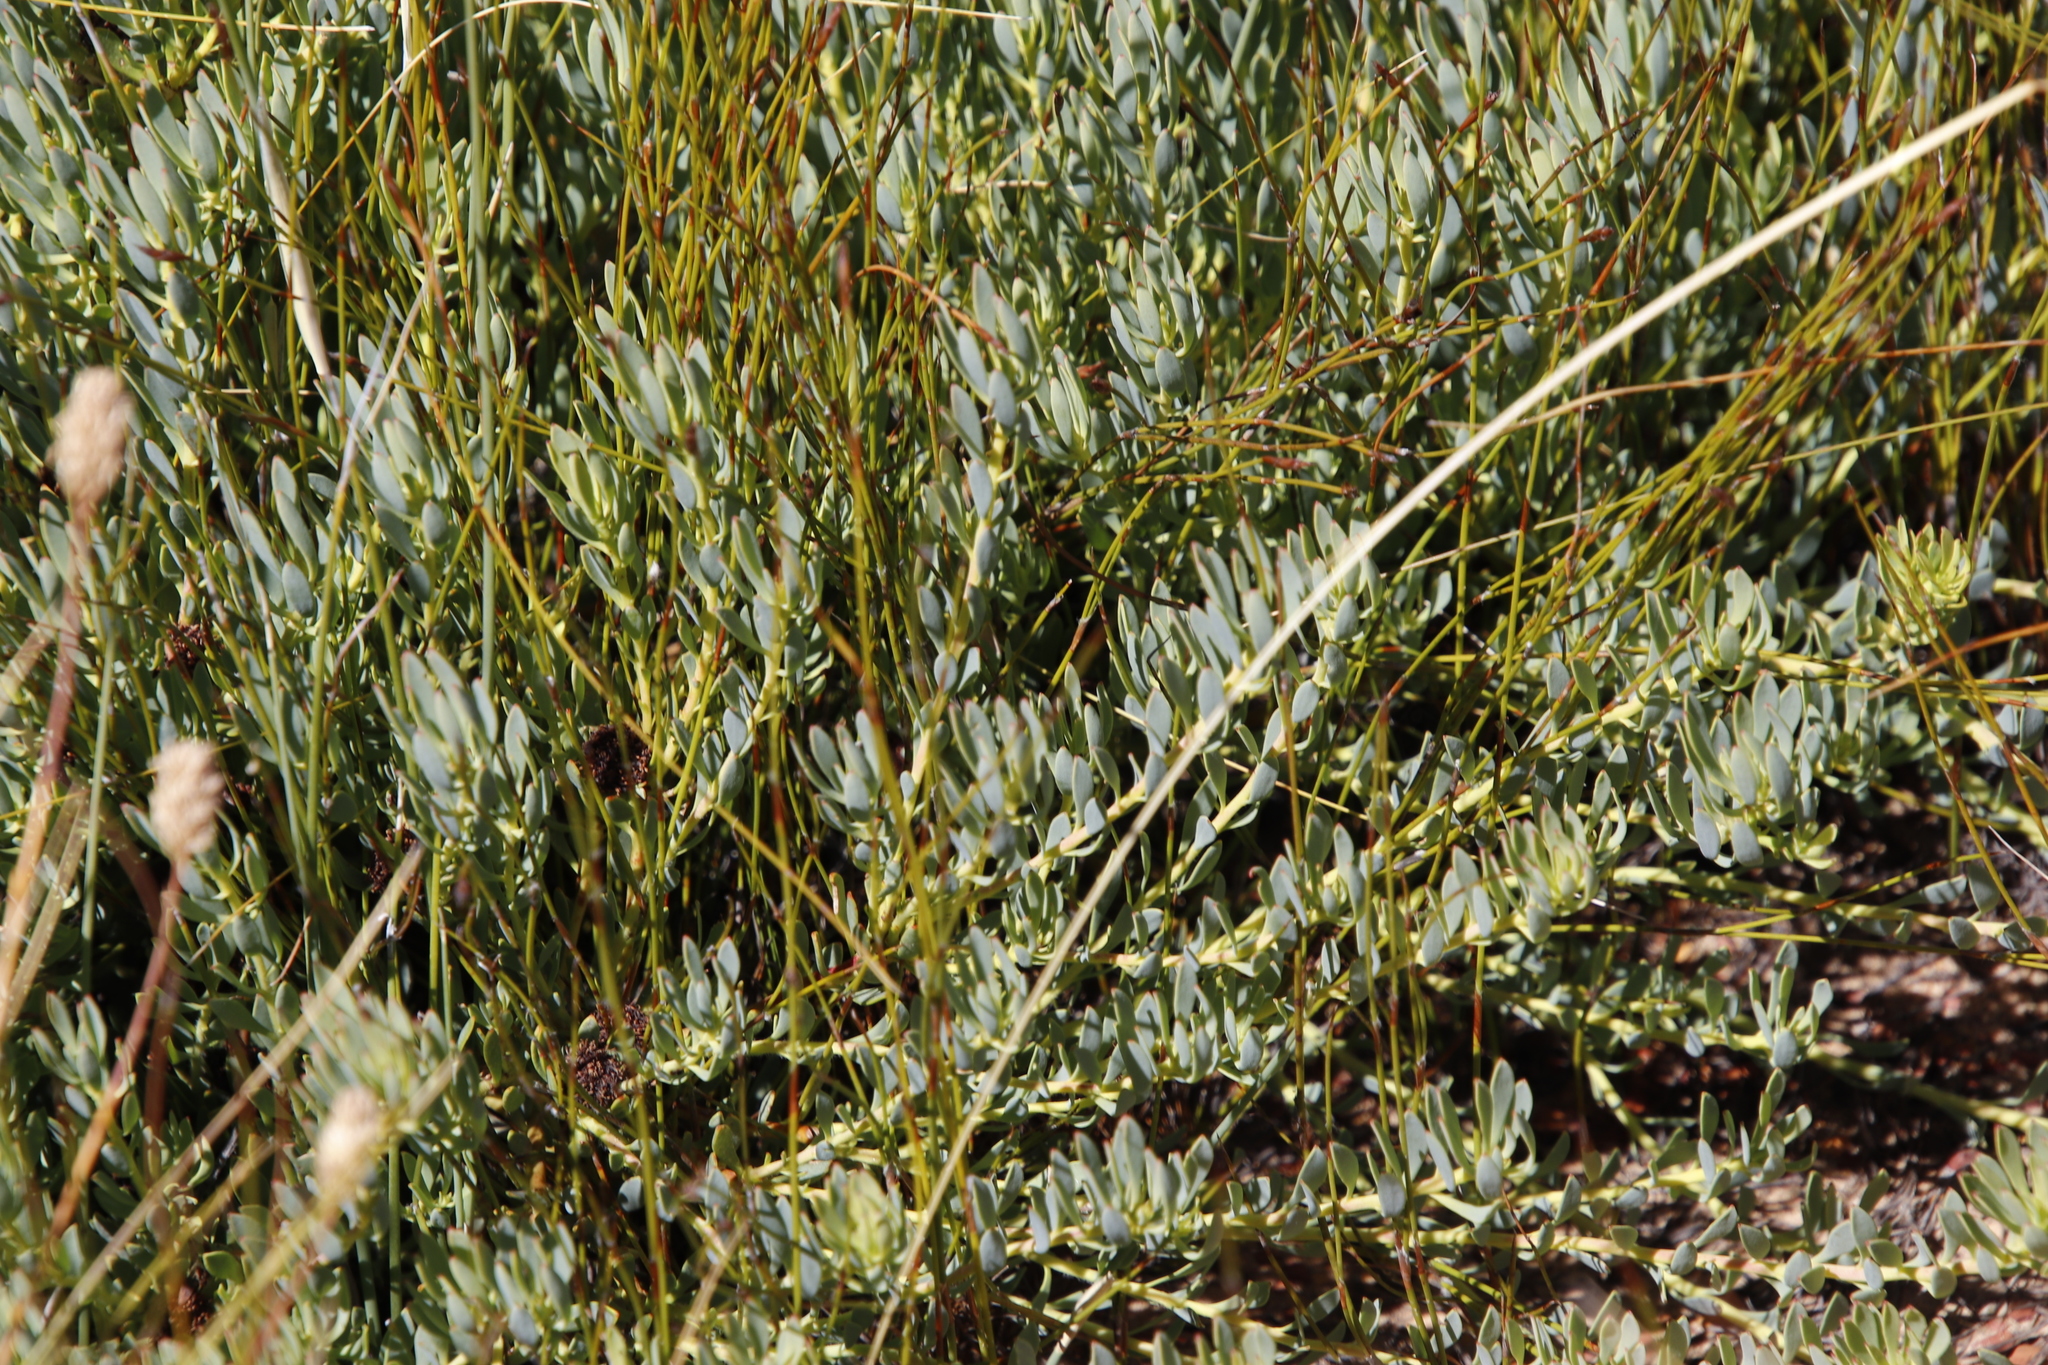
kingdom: Plantae
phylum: Tracheophyta
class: Magnoliopsida
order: Proteales
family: Proteaceae
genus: Leucadendron
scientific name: Leucadendron glaberrimum
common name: Common oily conebush
